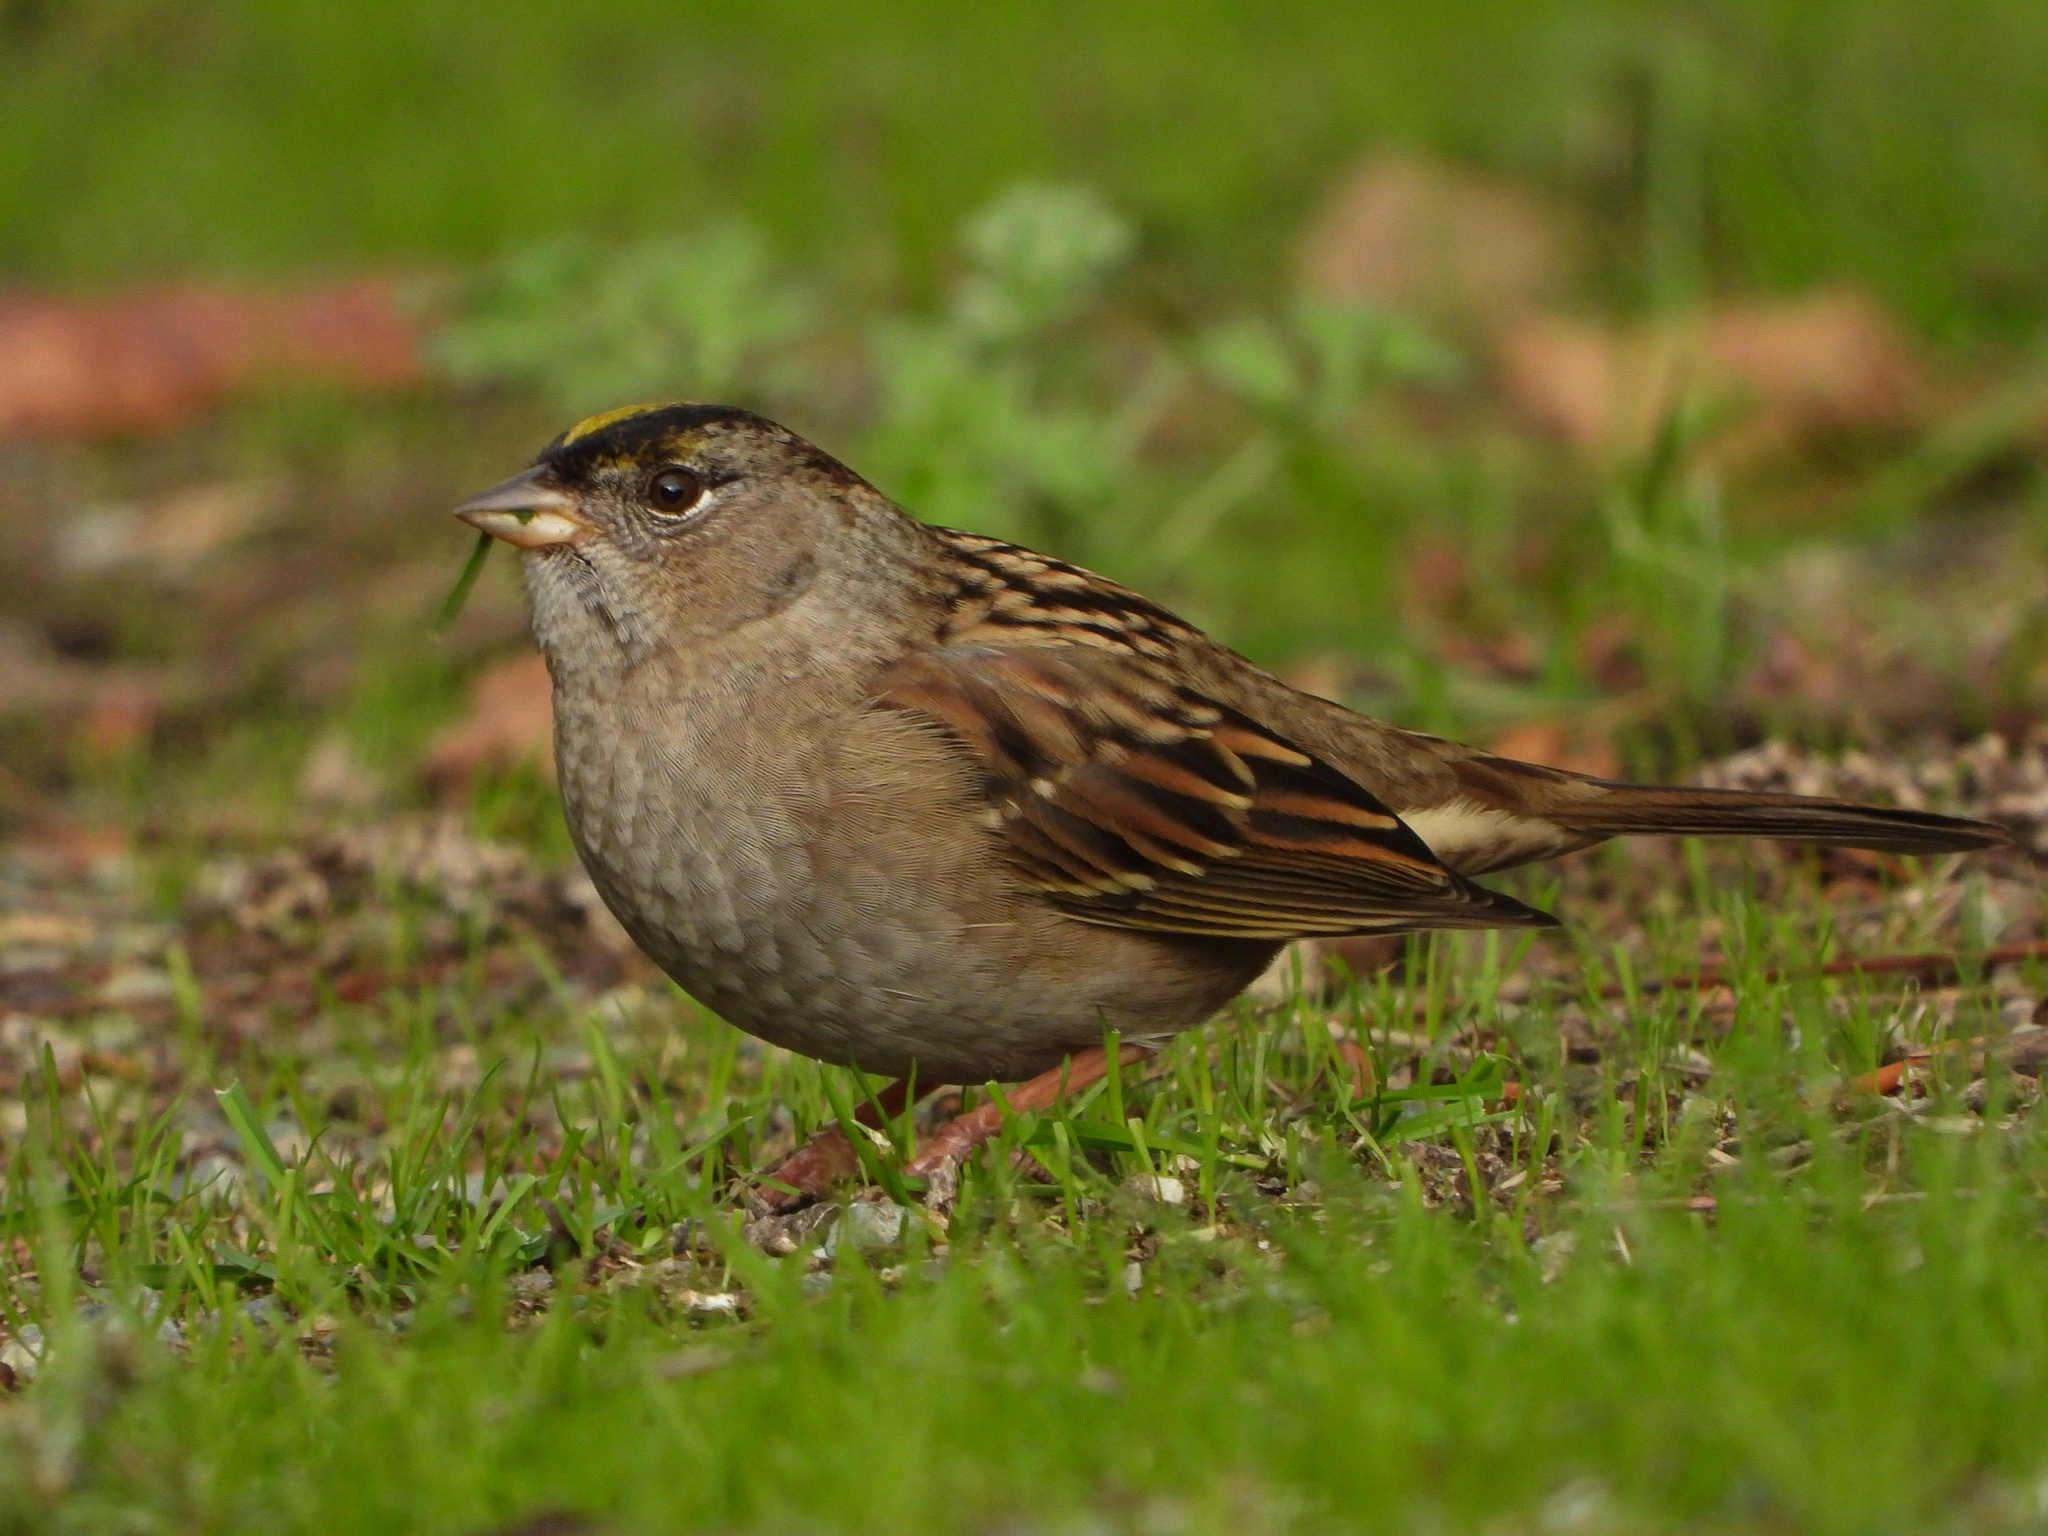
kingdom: Animalia
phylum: Chordata
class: Aves
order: Passeriformes
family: Passerellidae
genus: Zonotrichia
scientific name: Zonotrichia atricapilla
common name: Golden-crowned sparrow
